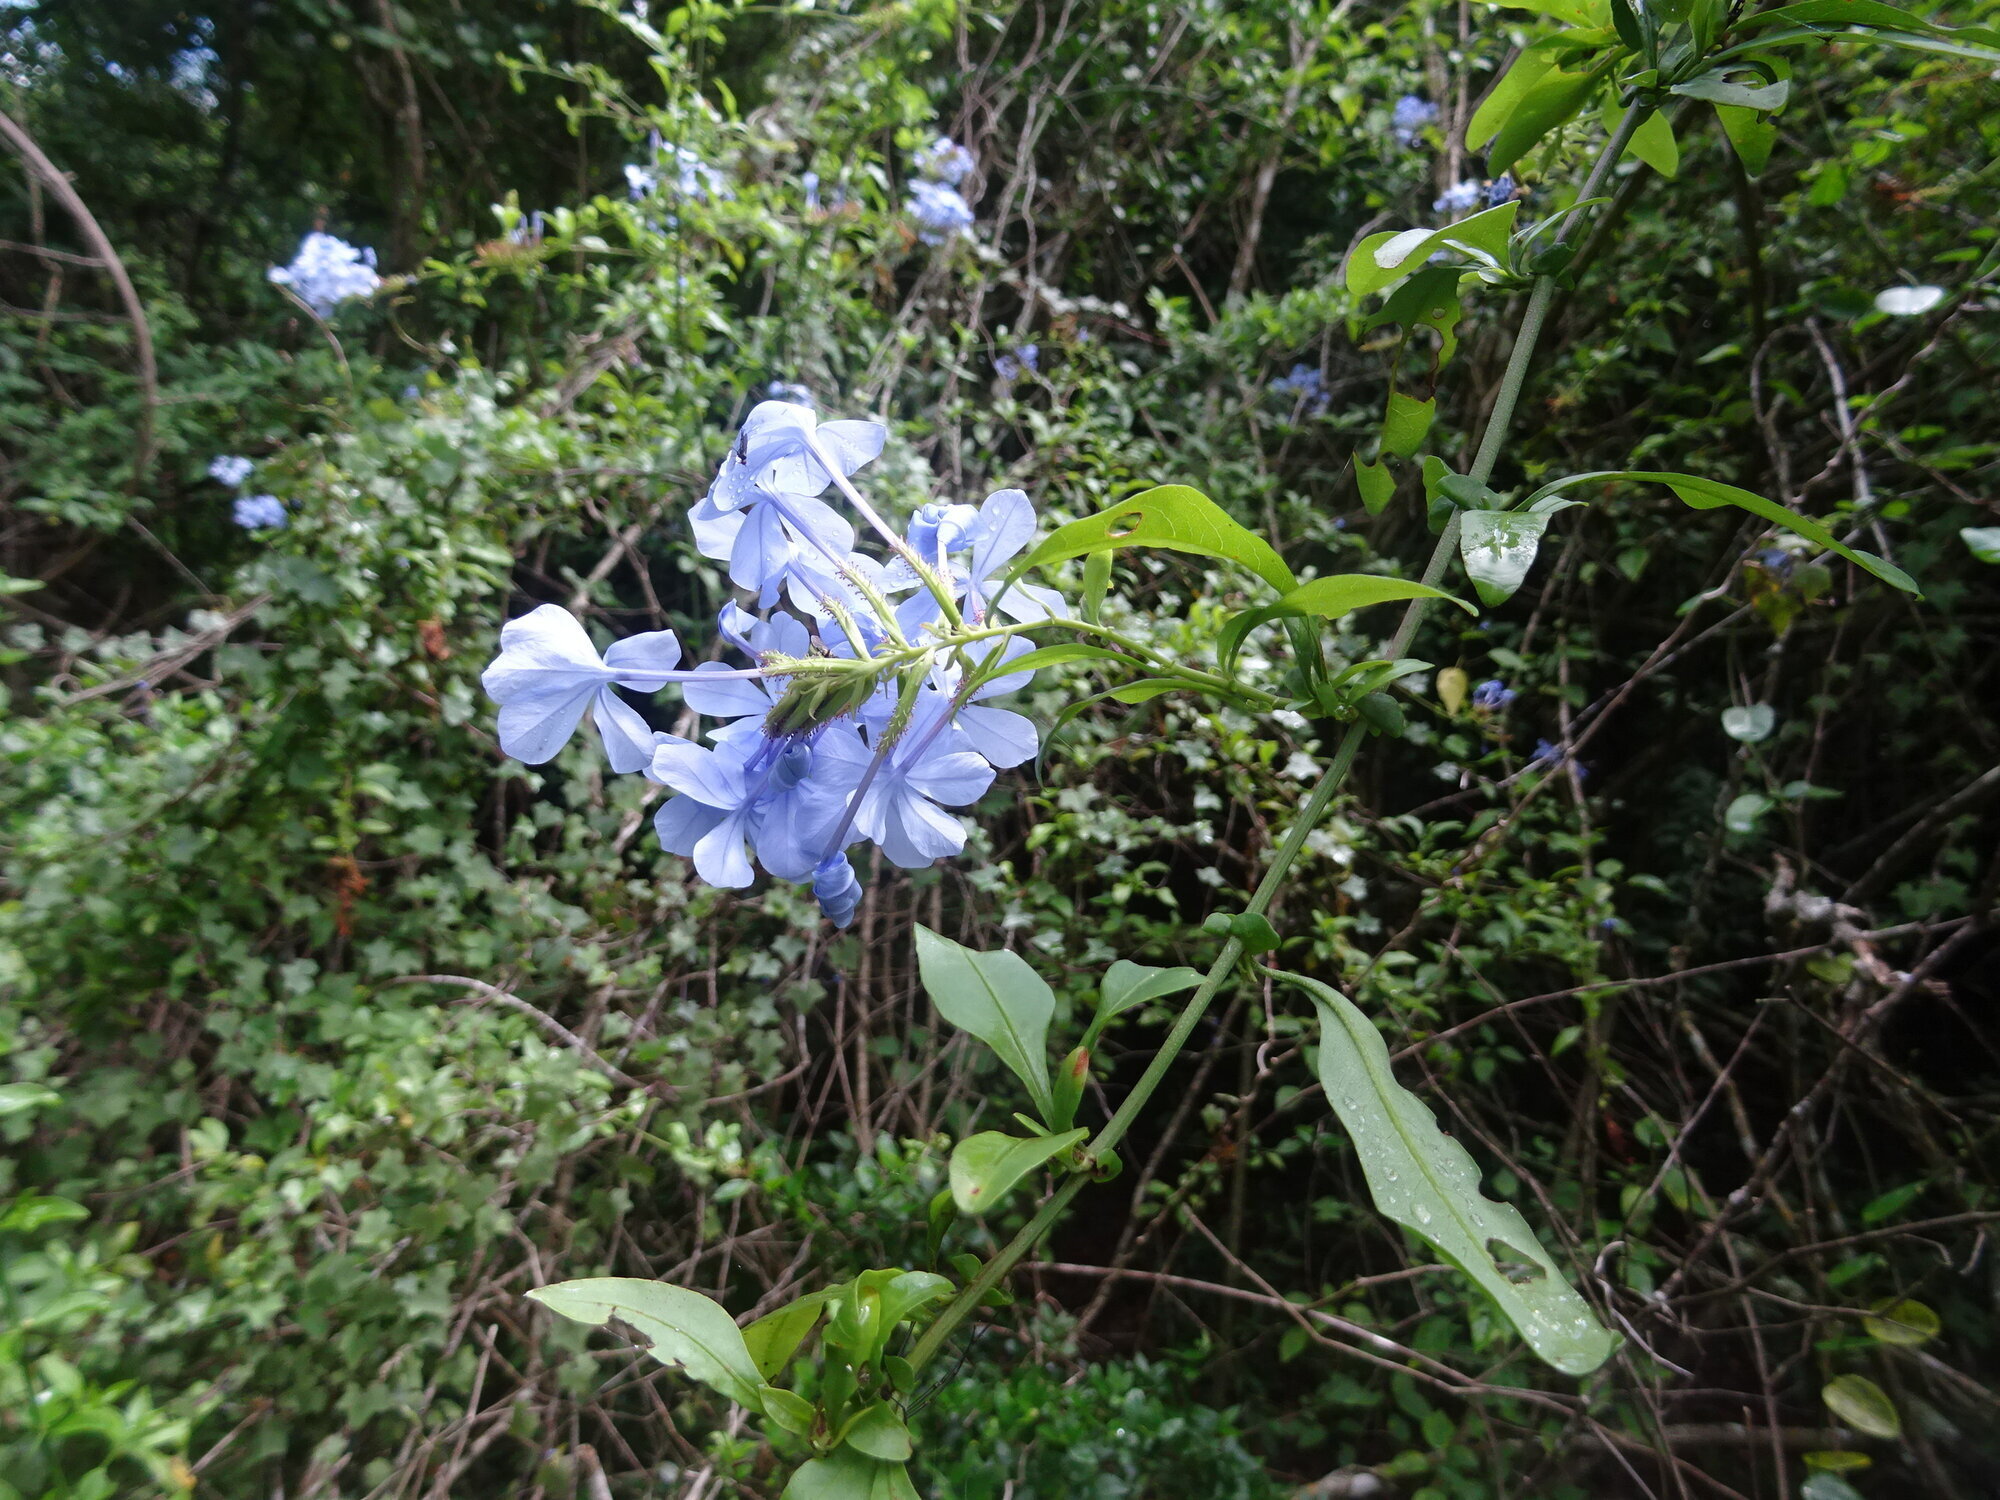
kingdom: Plantae
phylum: Tracheophyta
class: Magnoliopsida
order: Caryophyllales
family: Plumbaginaceae
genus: Plumbago
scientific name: Plumbago auriculata
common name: Cape leadwort
